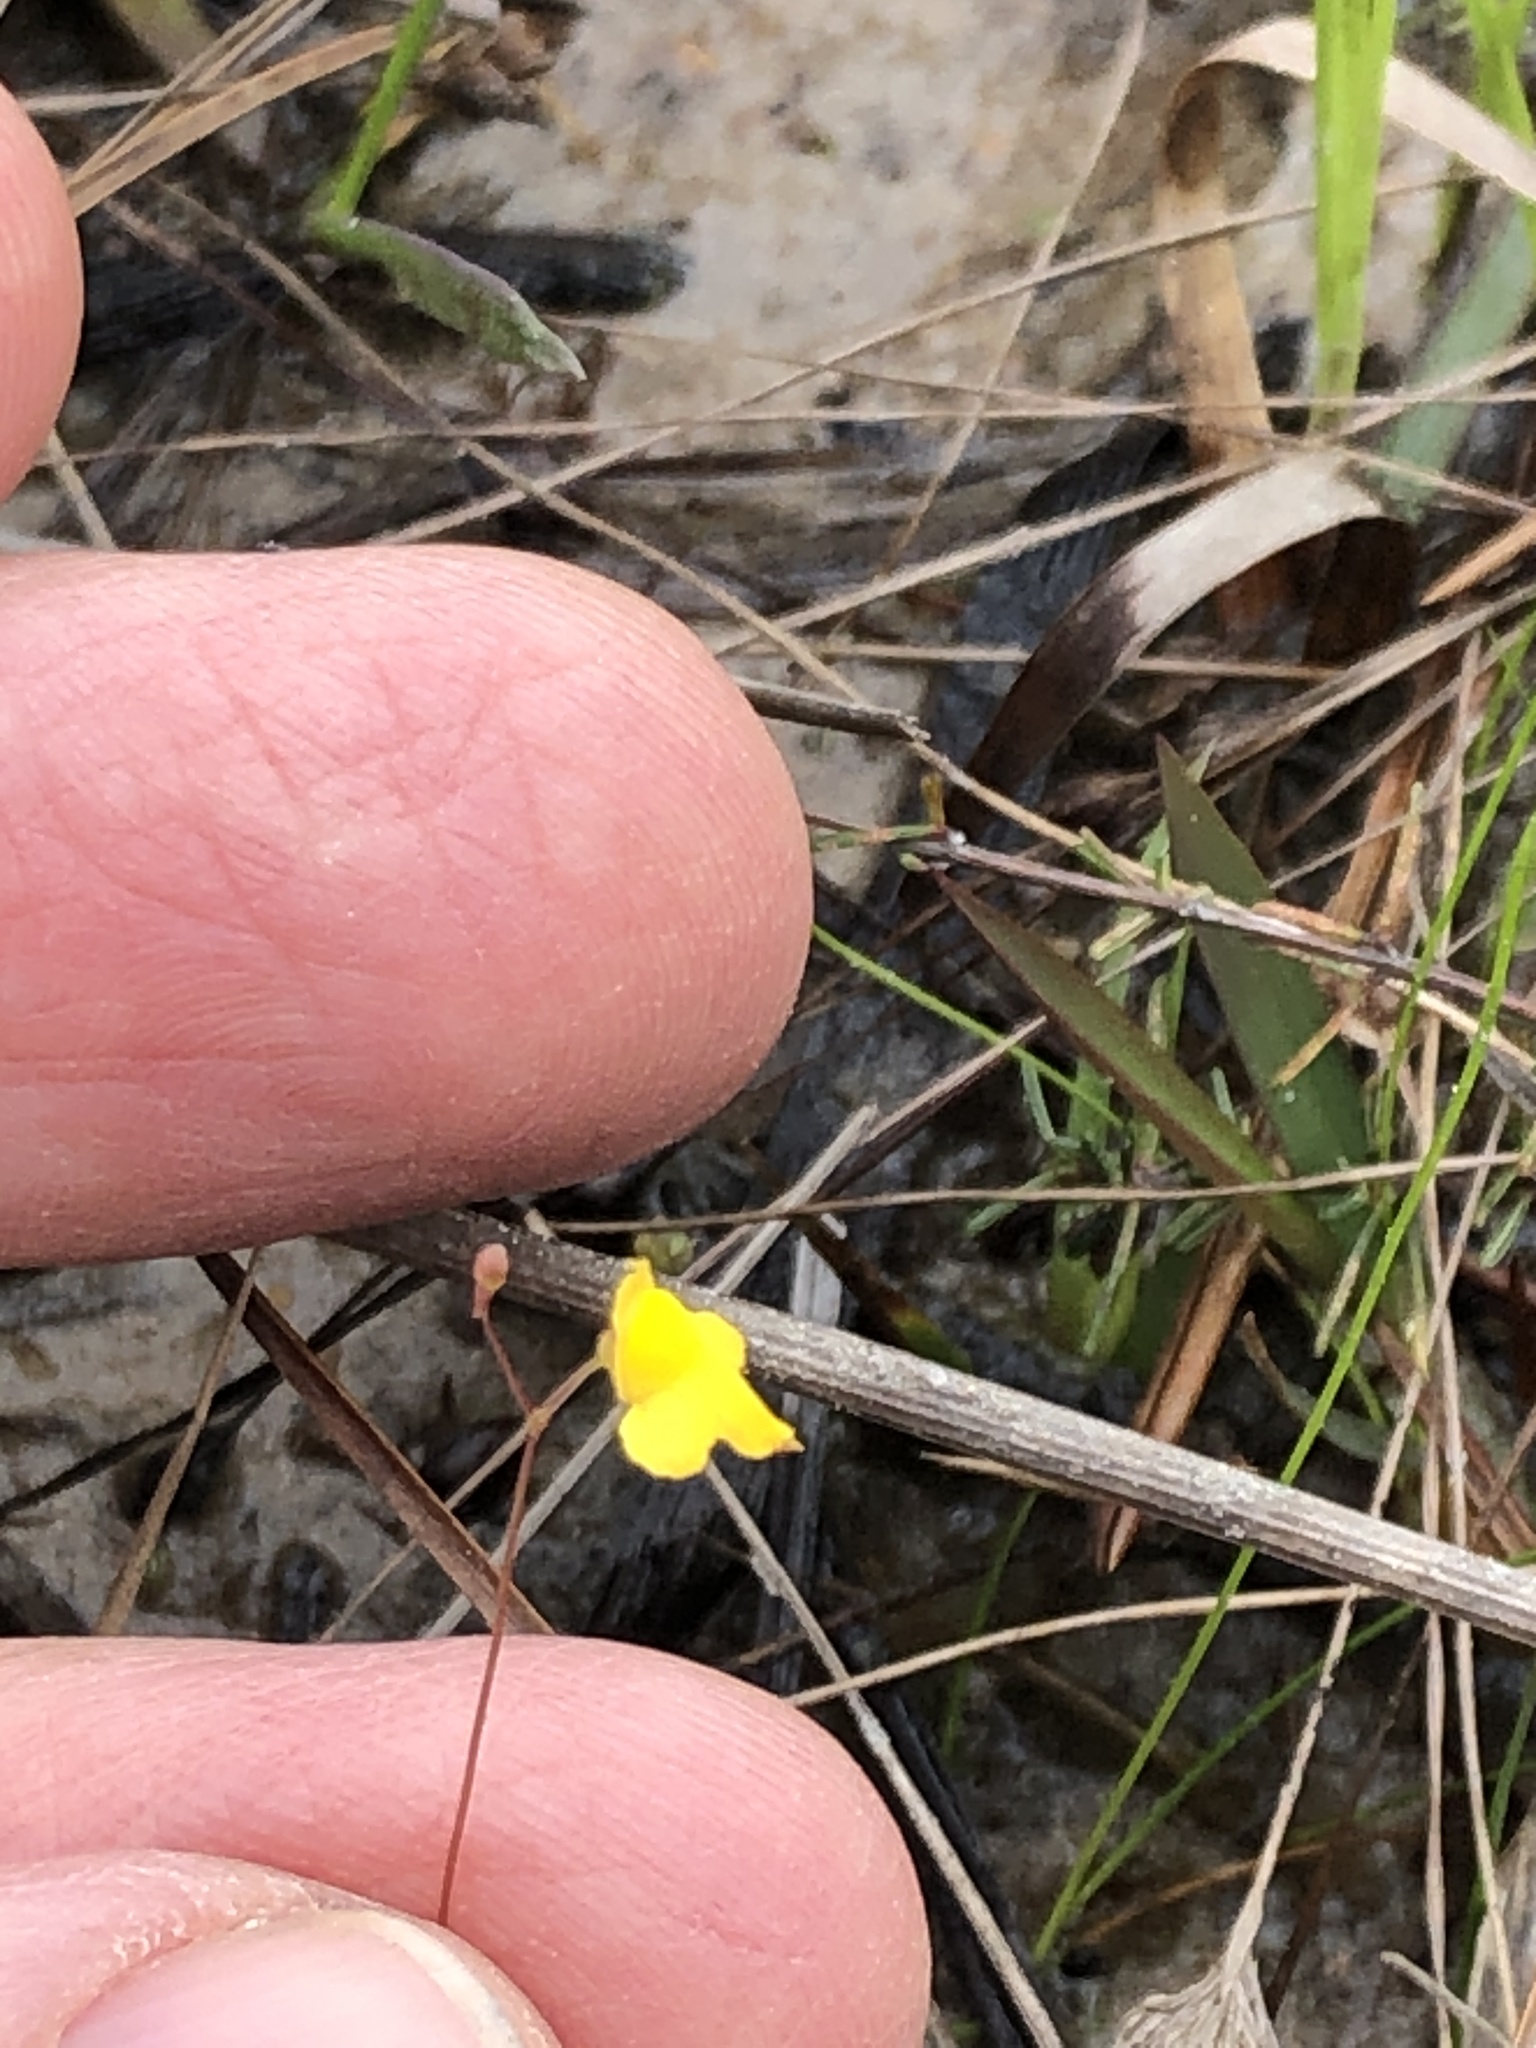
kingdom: Plantae
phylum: Tracheophyta
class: Magnoliopsida
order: Lamiales
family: Lentibulariaceae
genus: Utricularia
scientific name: Utricularia subulata
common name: Tiny bladderwort
